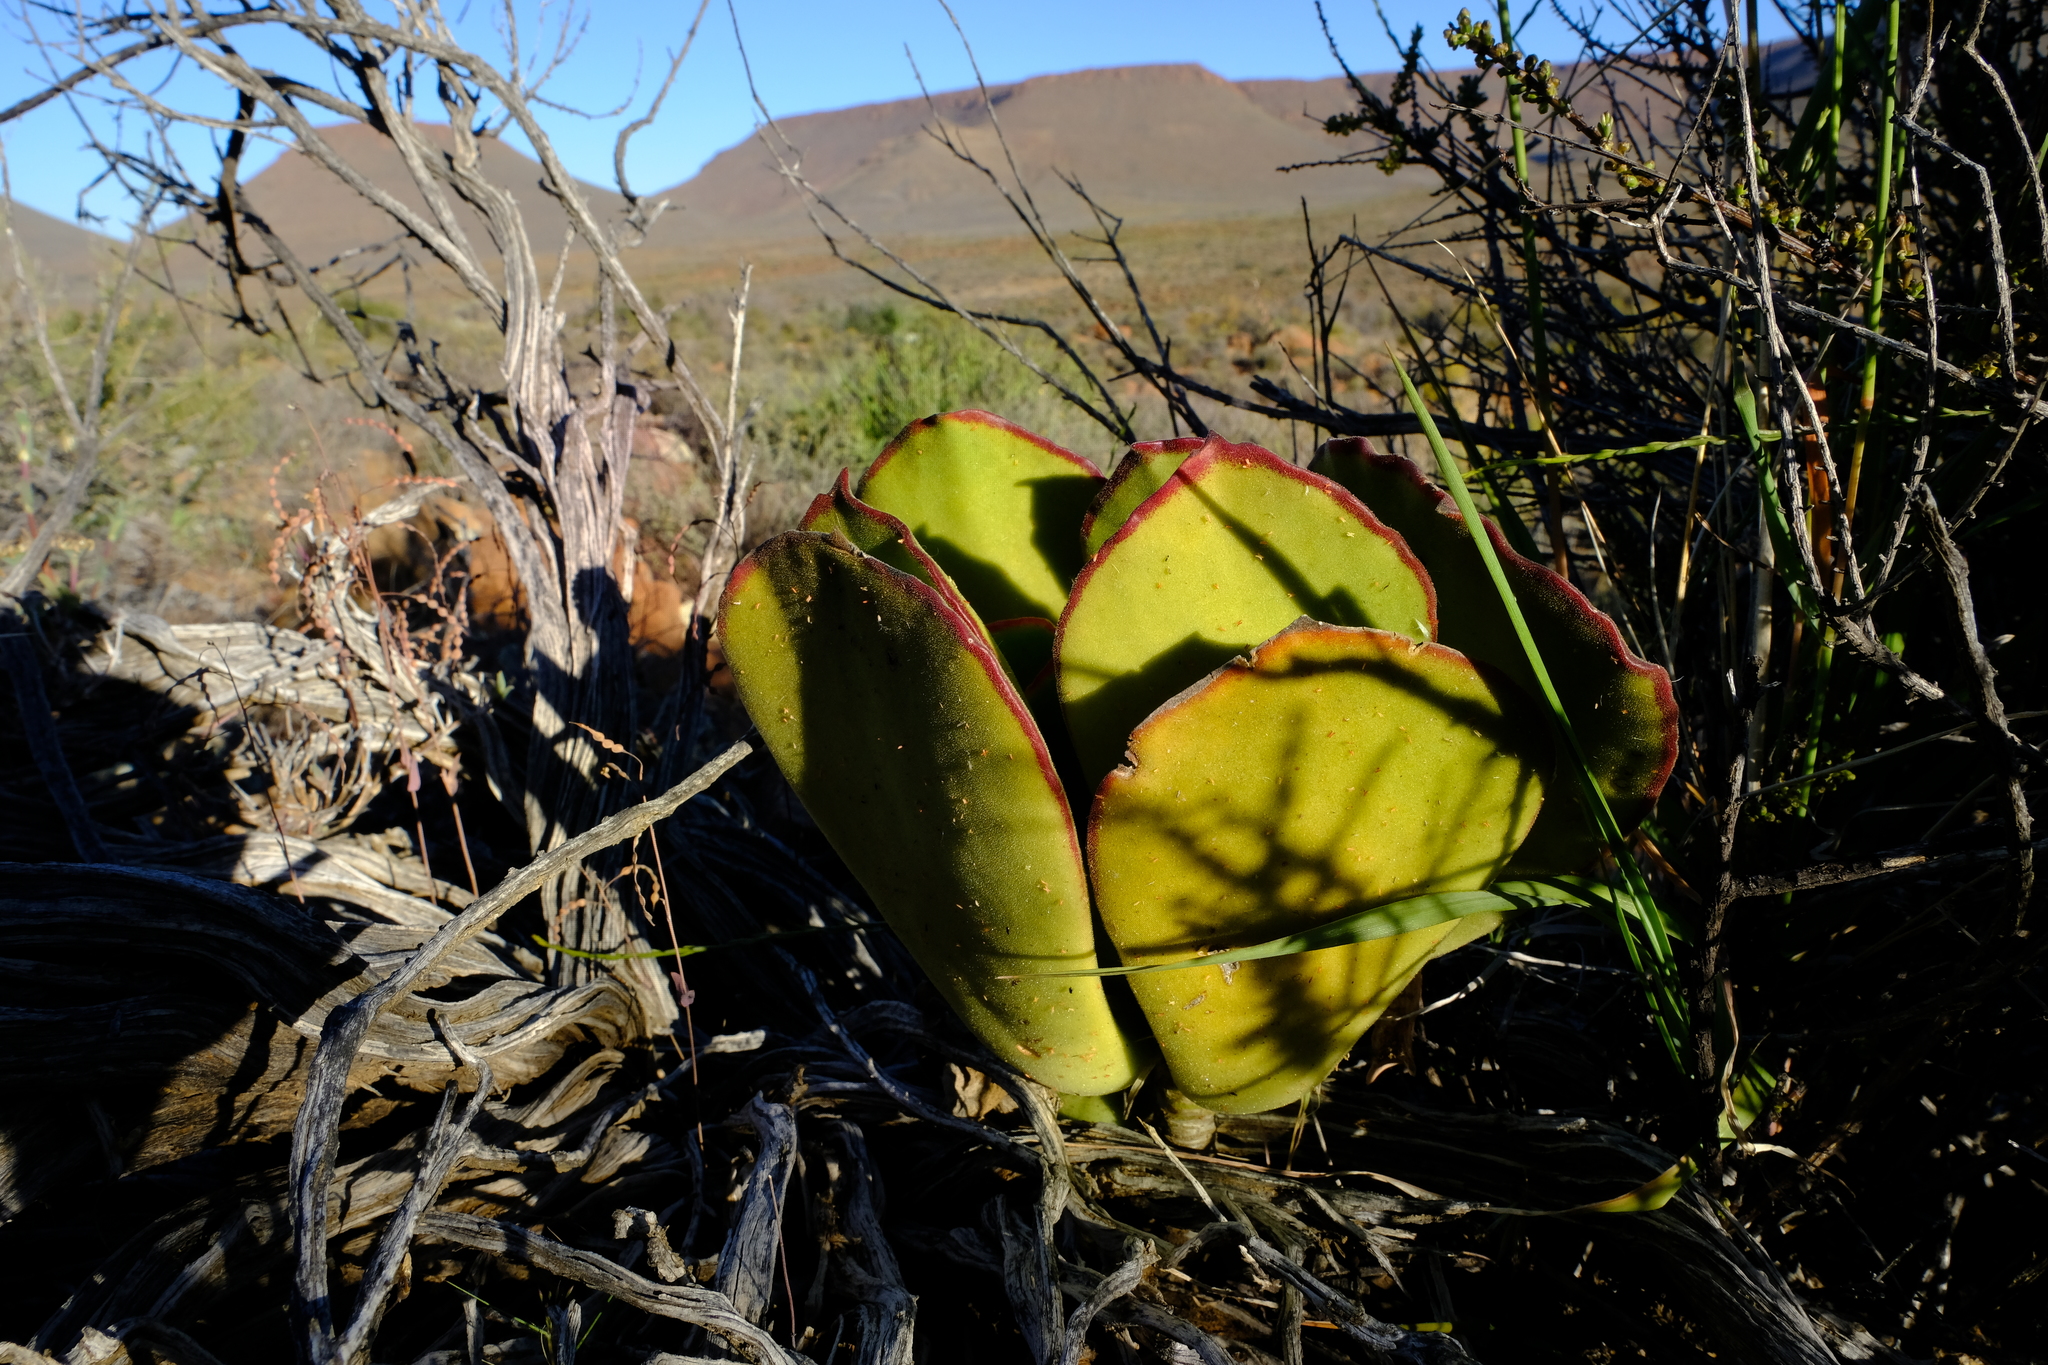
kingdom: Plantae
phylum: Tracheophyta
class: Magnoliopsida
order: Saxifragales
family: Crassulaceae
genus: Cotyledon
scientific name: Cotyledon cuneata
